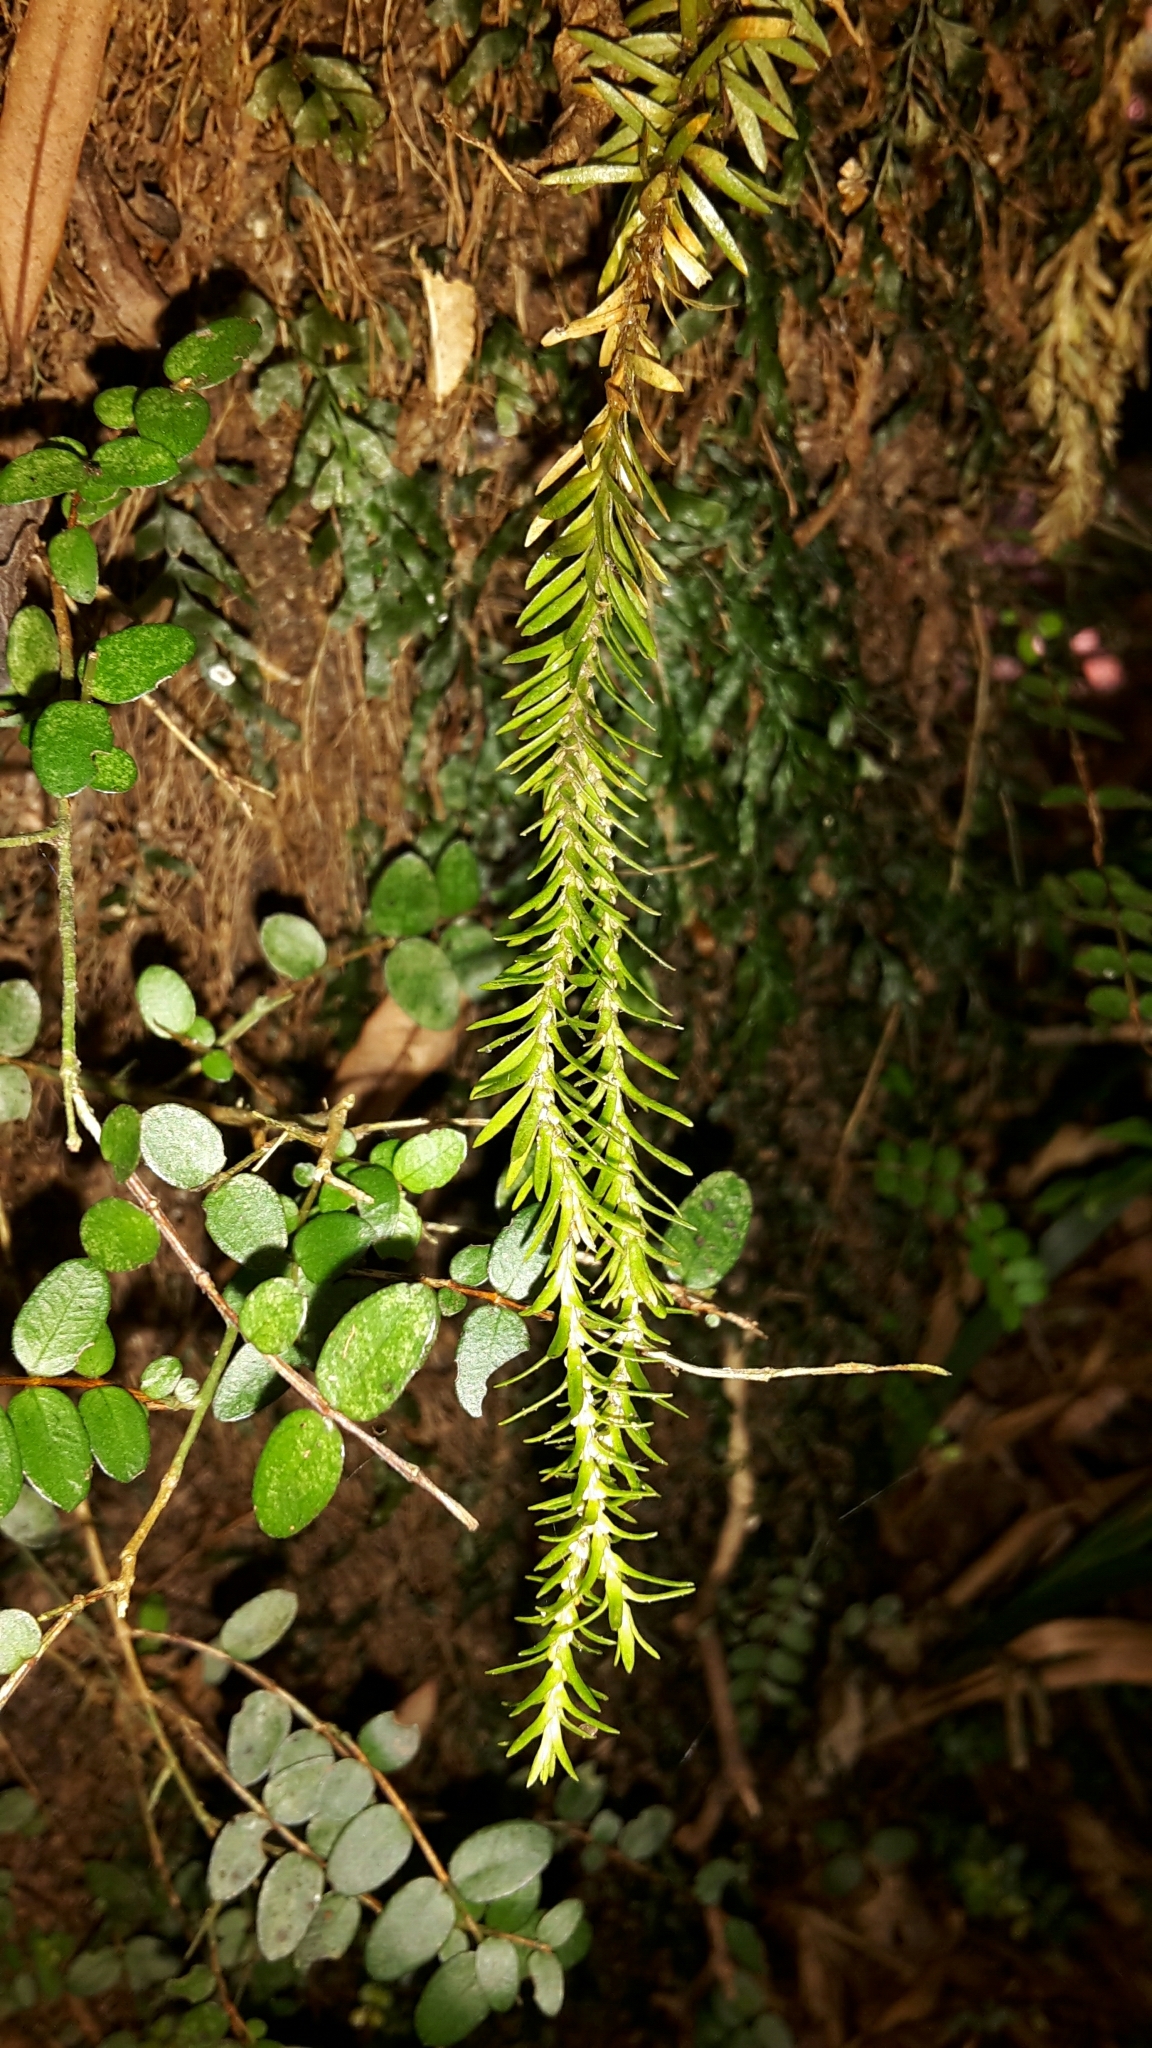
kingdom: Plantae
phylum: Tracheophyta
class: Lycopodiopsida
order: Lycopodiales
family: Lycopodiaceae
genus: Phlegmariurus
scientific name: Phlegmariurus varius
